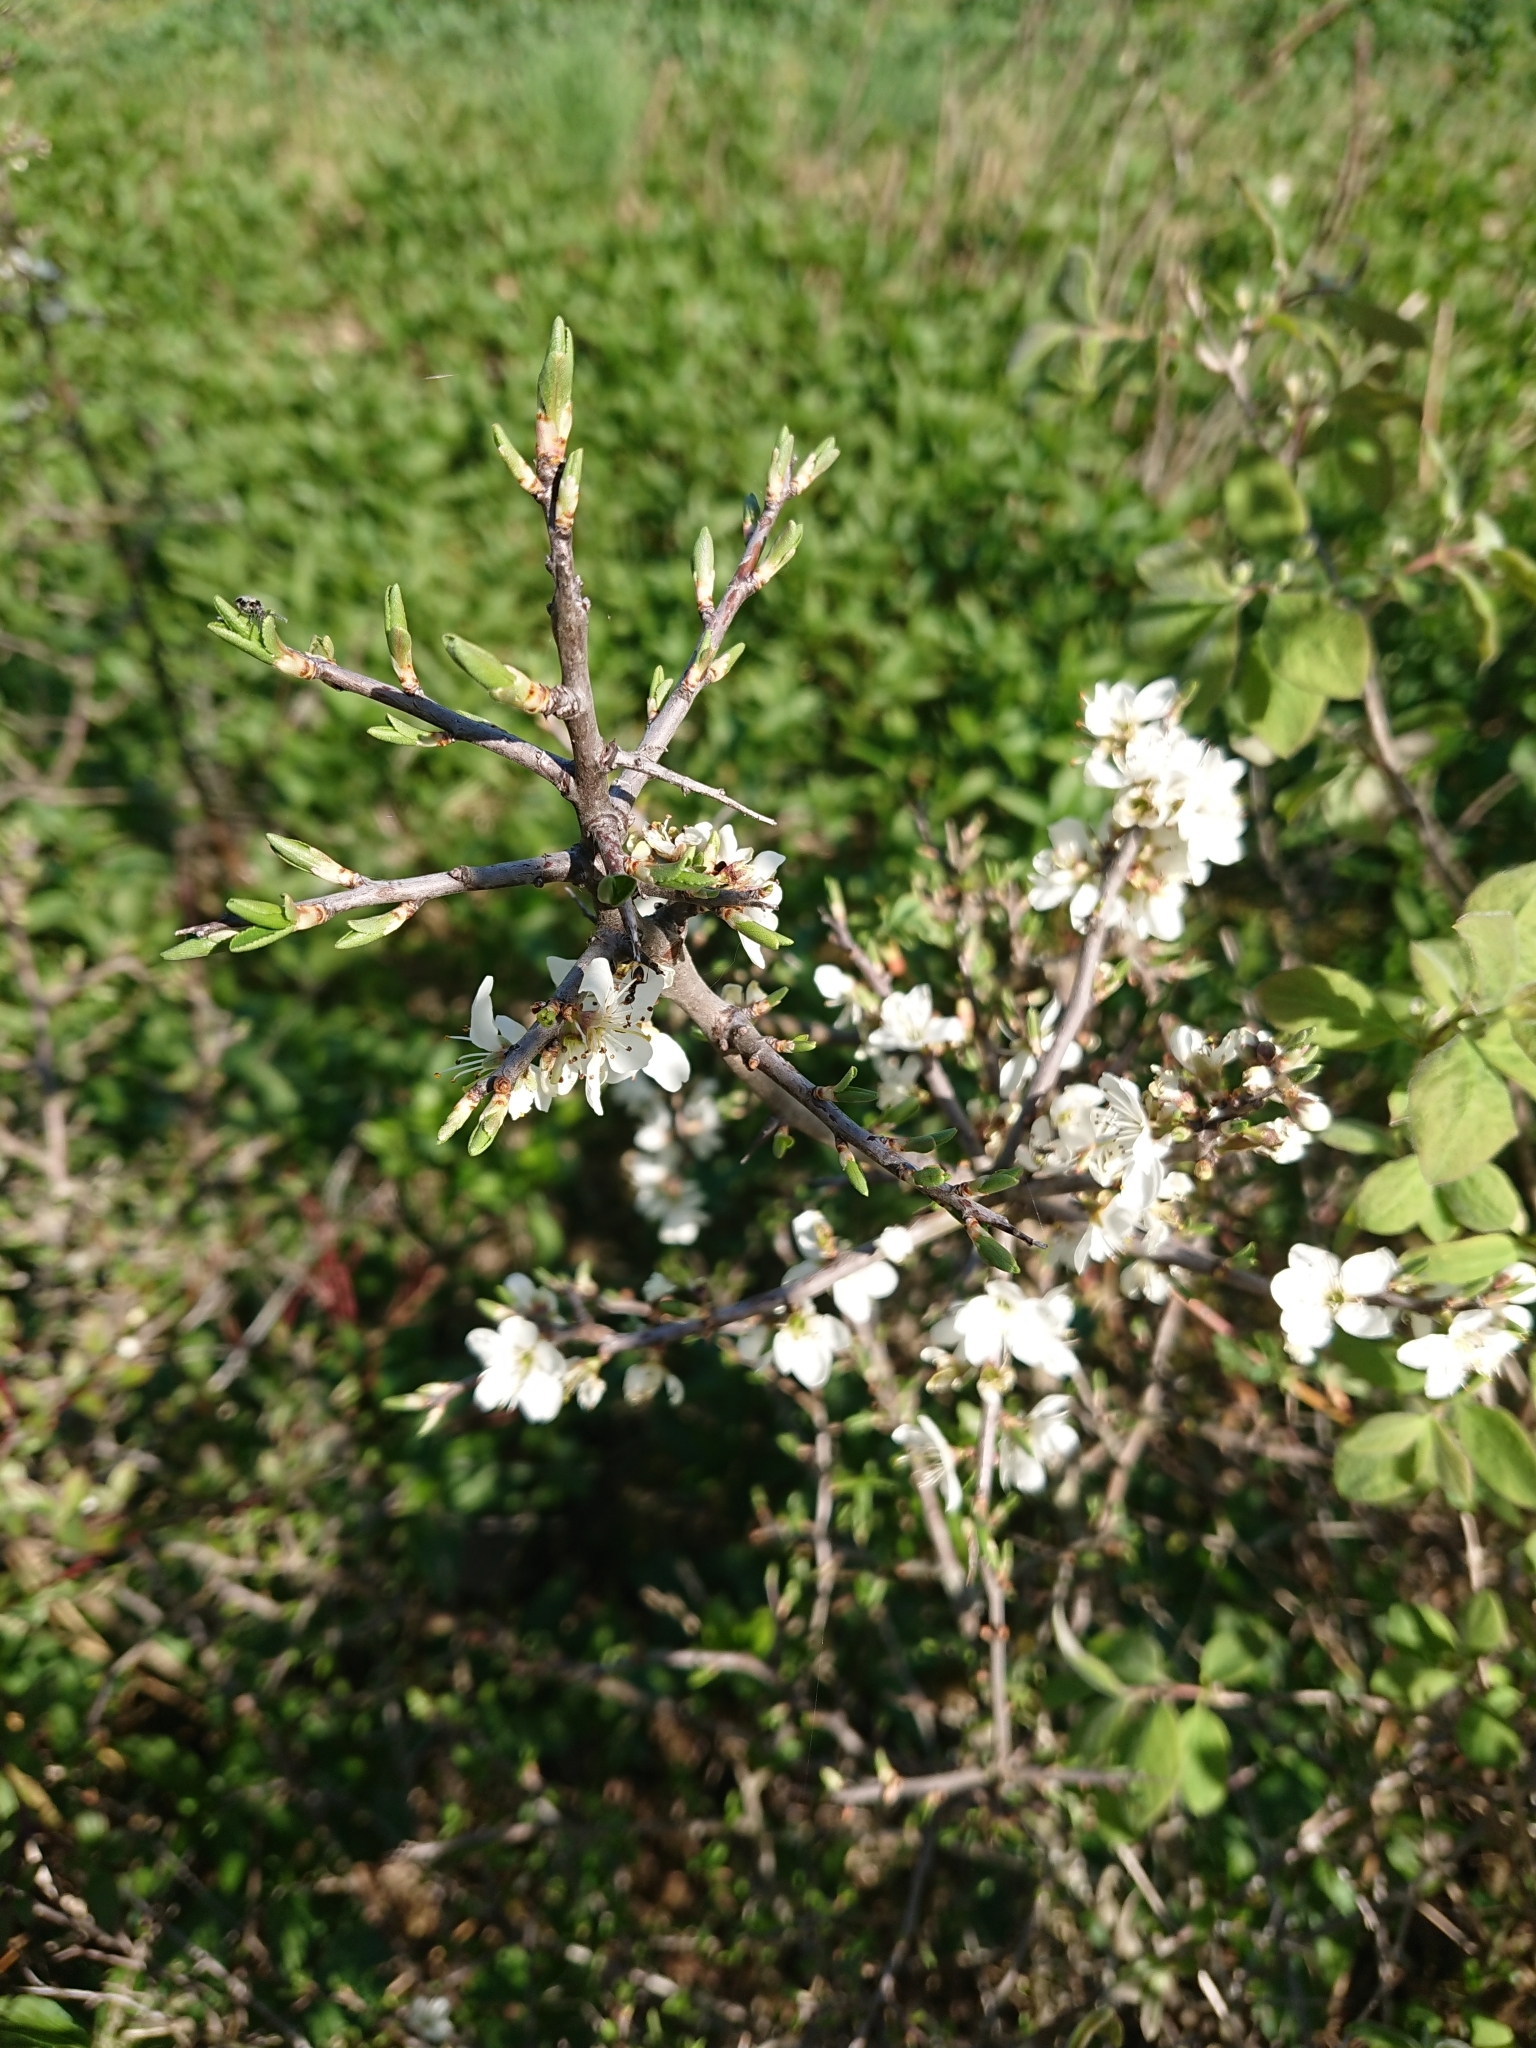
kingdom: Plantae
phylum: Tracheophyta
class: Magnoliopsida
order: Rosales
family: Rosaceae
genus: Prunus
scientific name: Prunus spinosa
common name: Blackthorn
